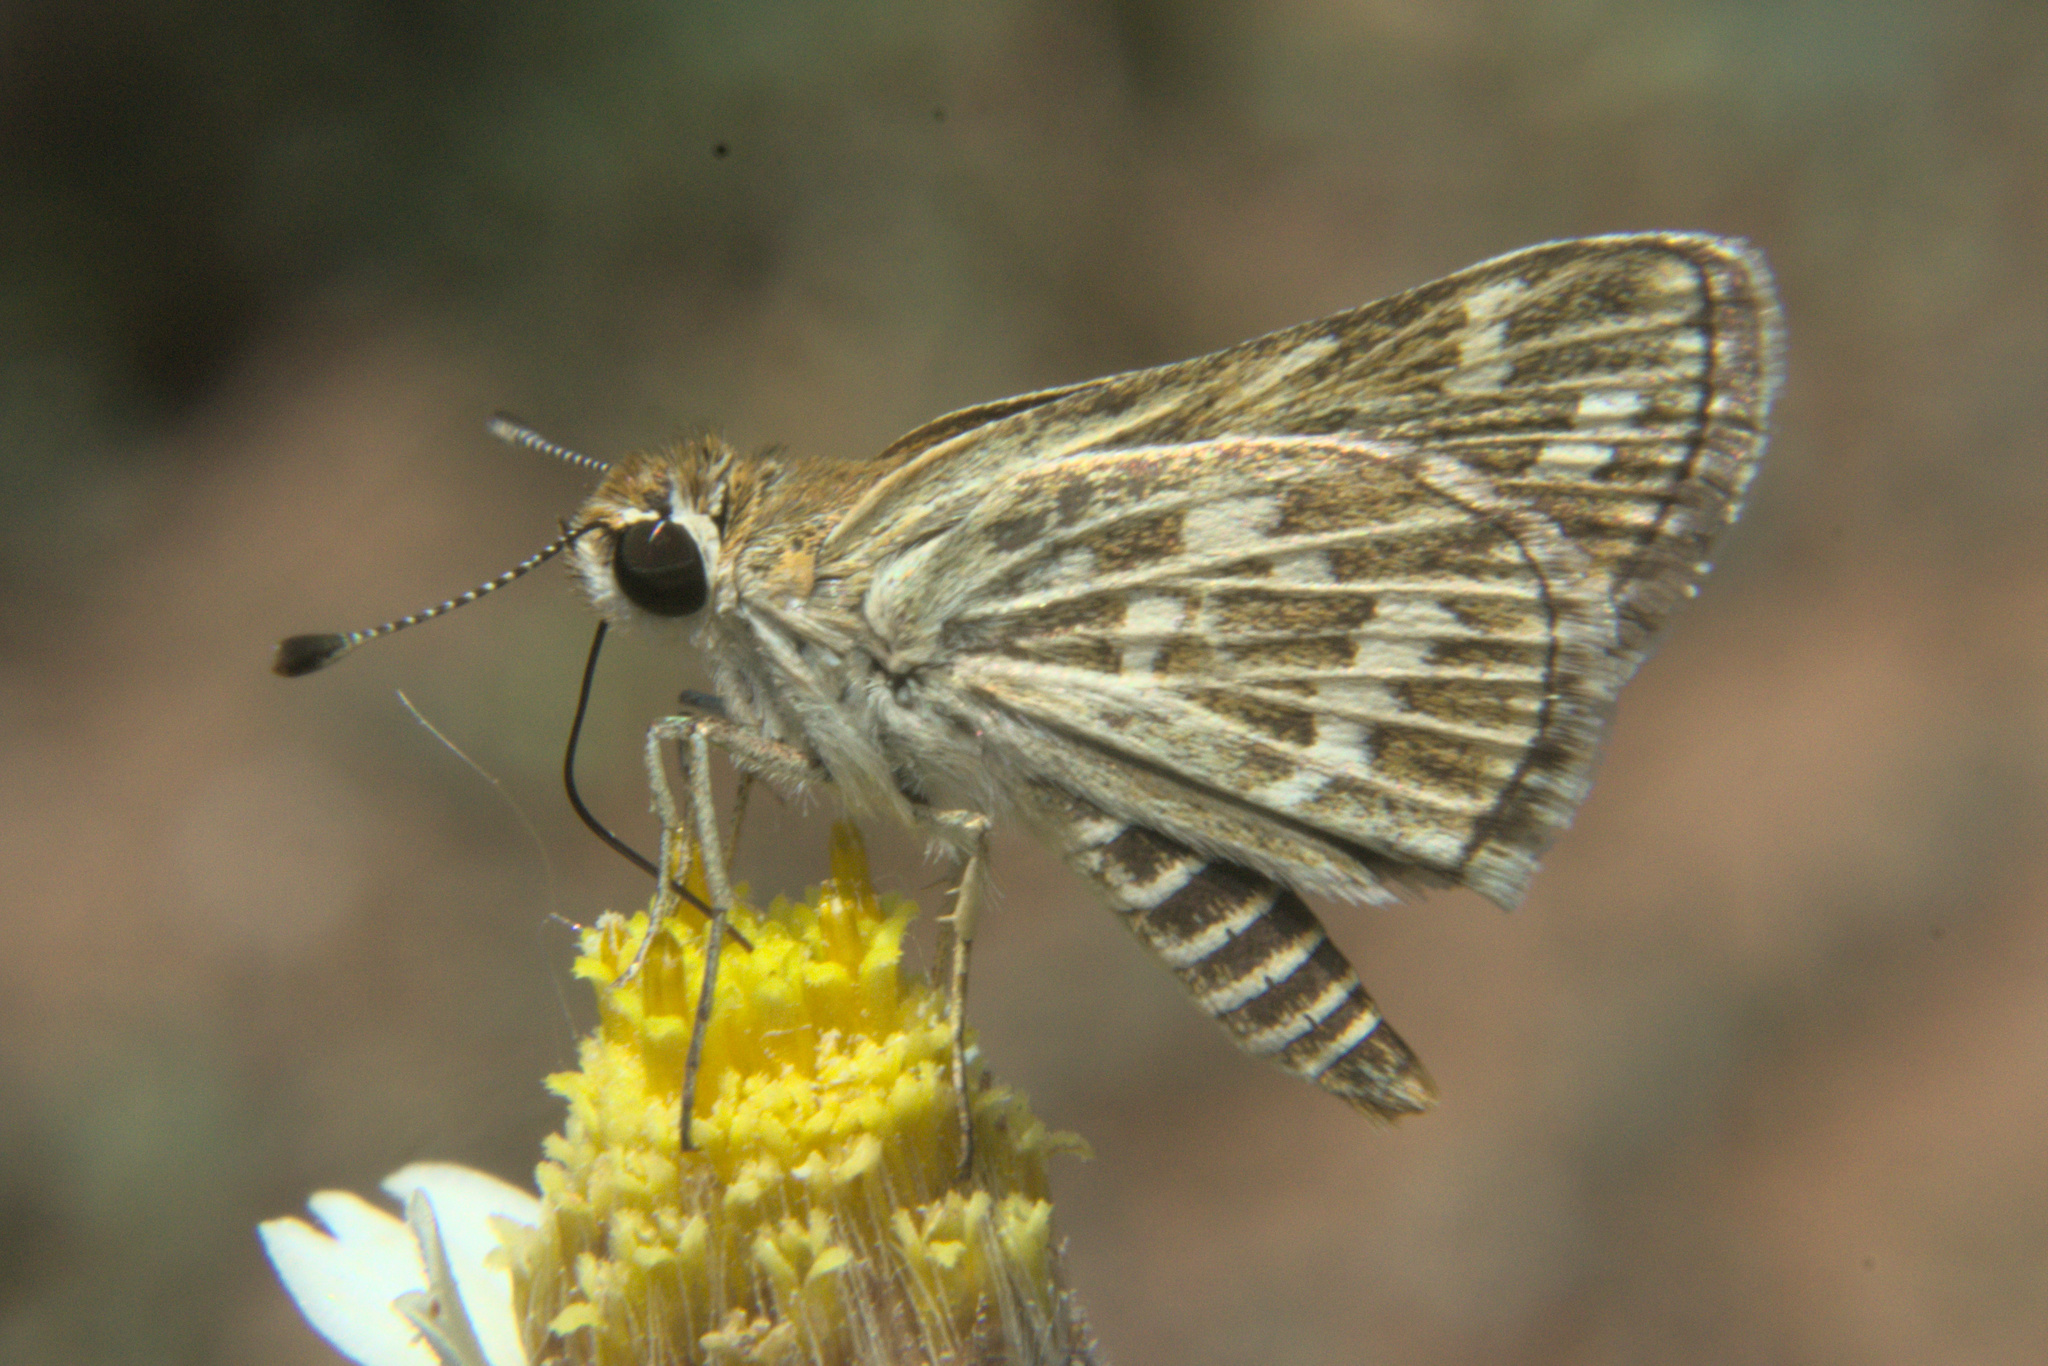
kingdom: Animalia
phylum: Arthropoda
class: Insecta
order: Lepidoptera
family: Hesperiidae
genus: Taractrocera
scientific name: Taractrocera maevius
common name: Common grass-dart
